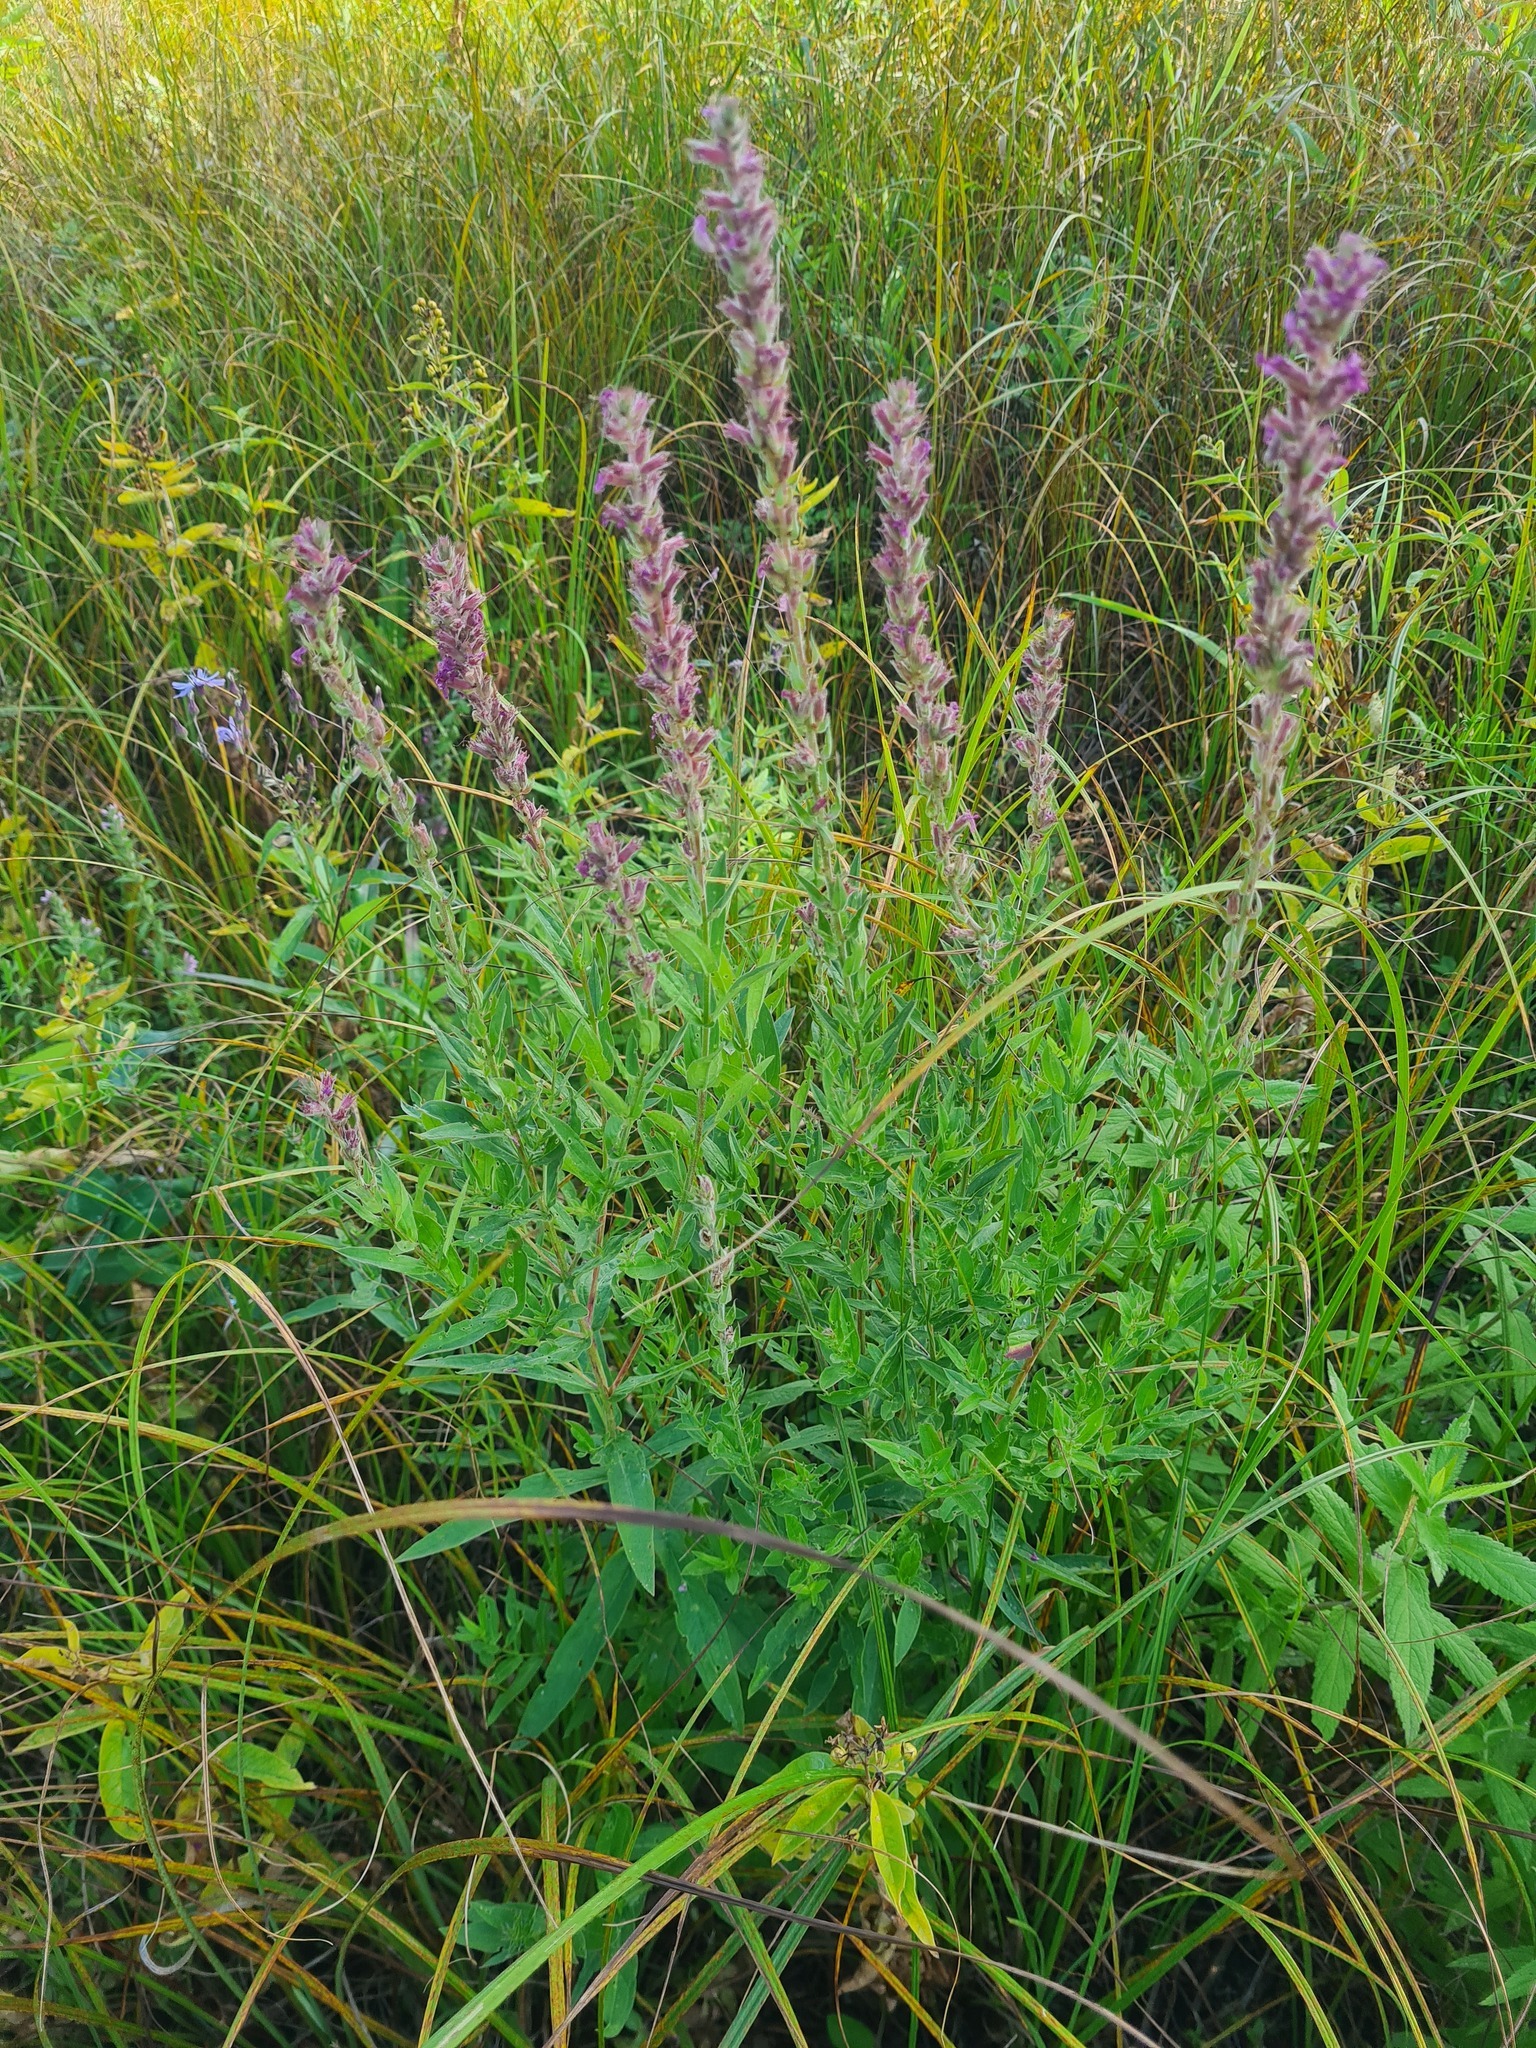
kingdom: Plantae
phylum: Tracheophyta
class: Magnoliopsida
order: Myrtales
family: Lythraceae
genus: Lythrum
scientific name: Lythrum salicaria
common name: Purple loosestrife
